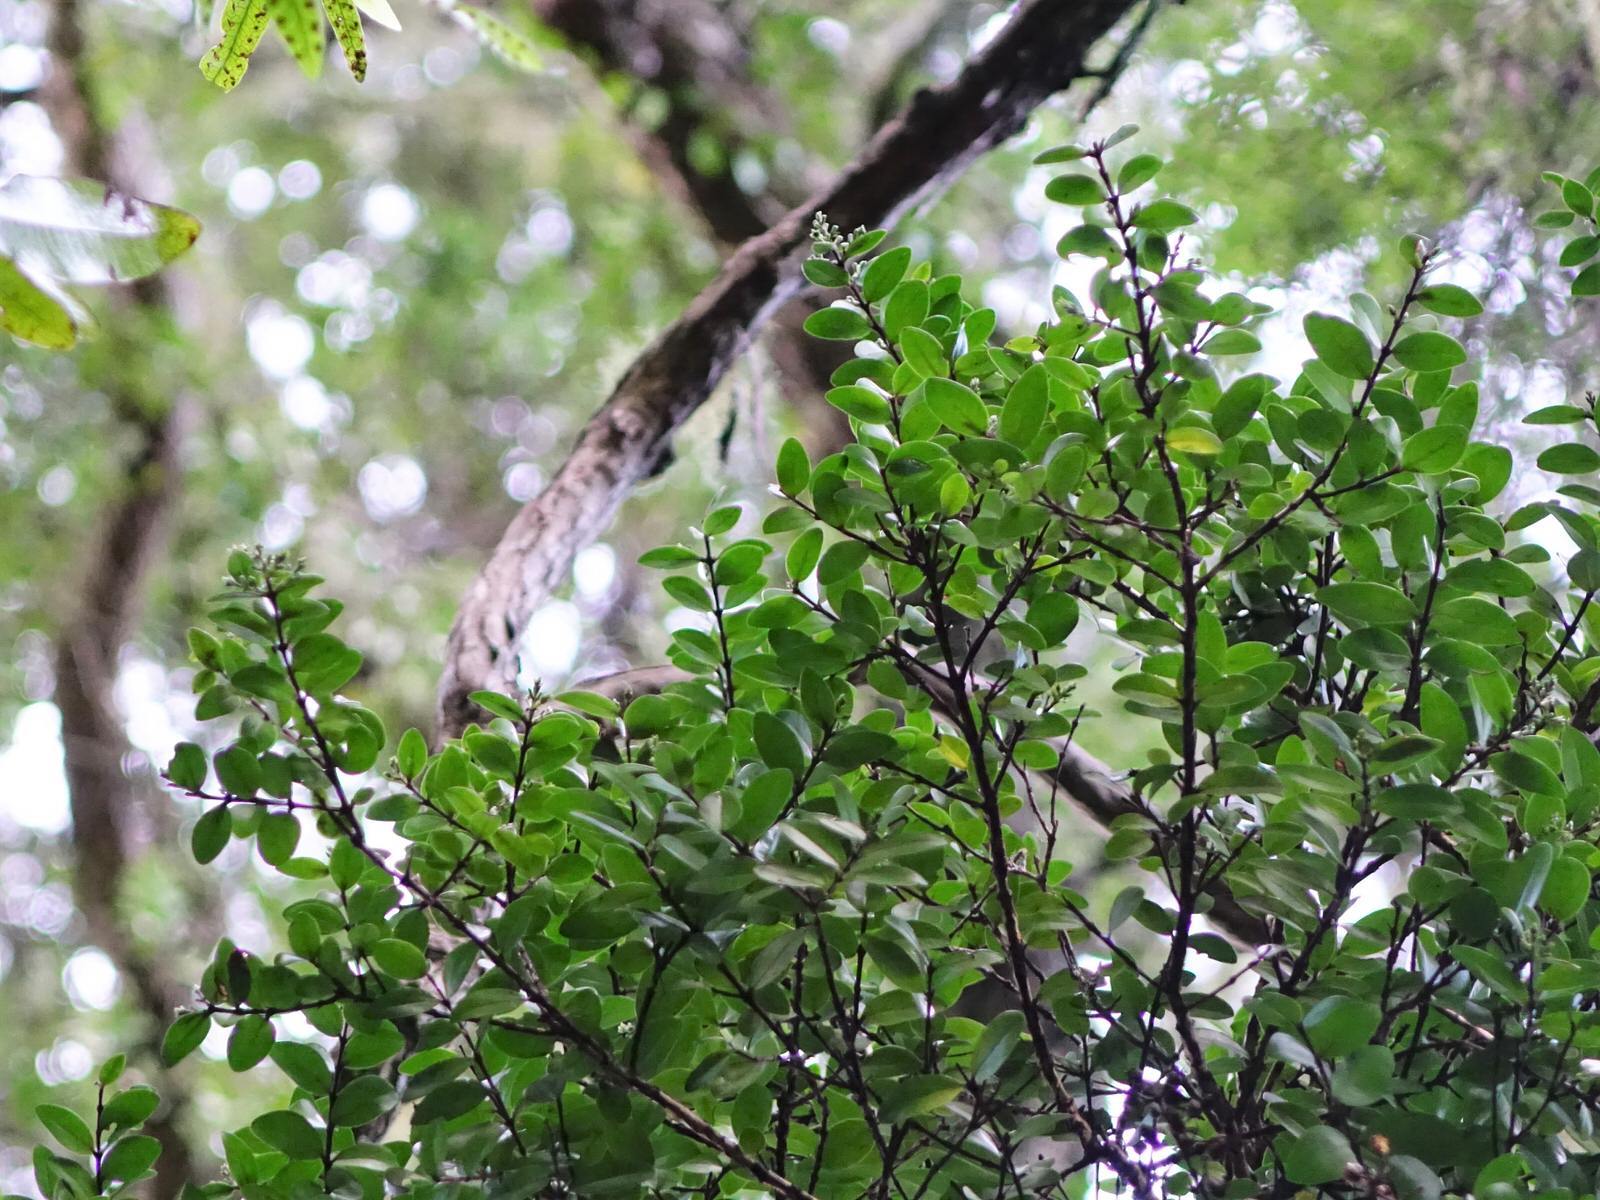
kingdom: Plantae
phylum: Tracheophyta
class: Magnoliopsida
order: Myrtales
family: Myrtaceae
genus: Metrosideros
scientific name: Metrosideros carminea
